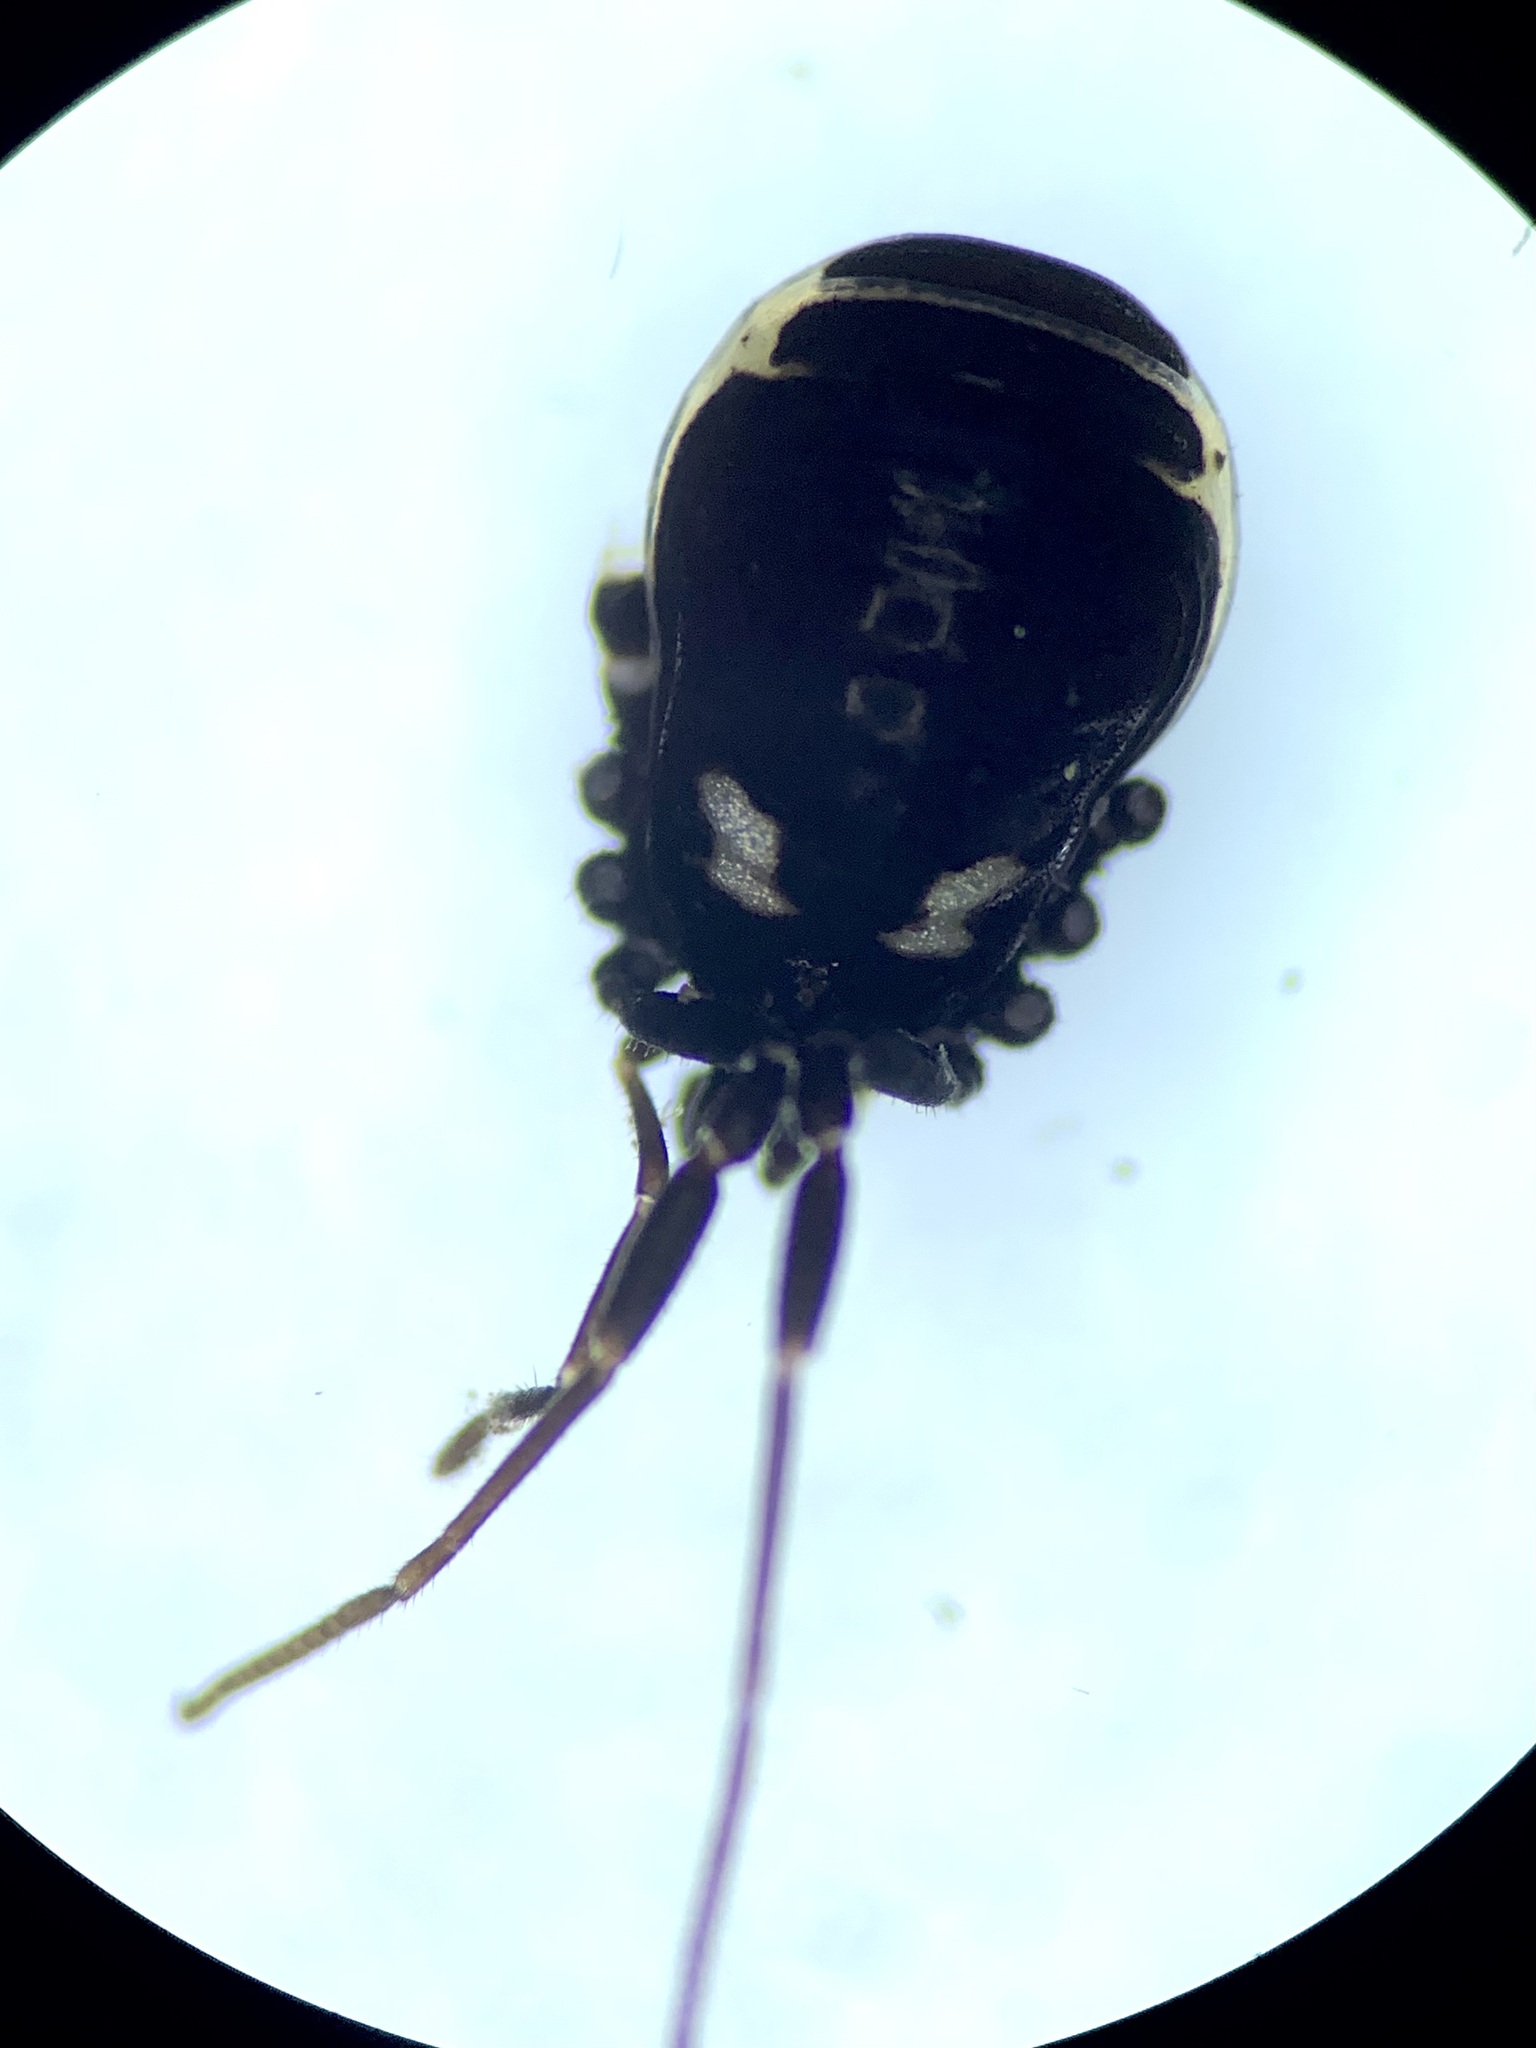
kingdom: Animalia
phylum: Arthropoda
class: Arachnida
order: Opiliones
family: Nemastomatidae
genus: Nemastoma
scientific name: Nemastoma bimaculatum
